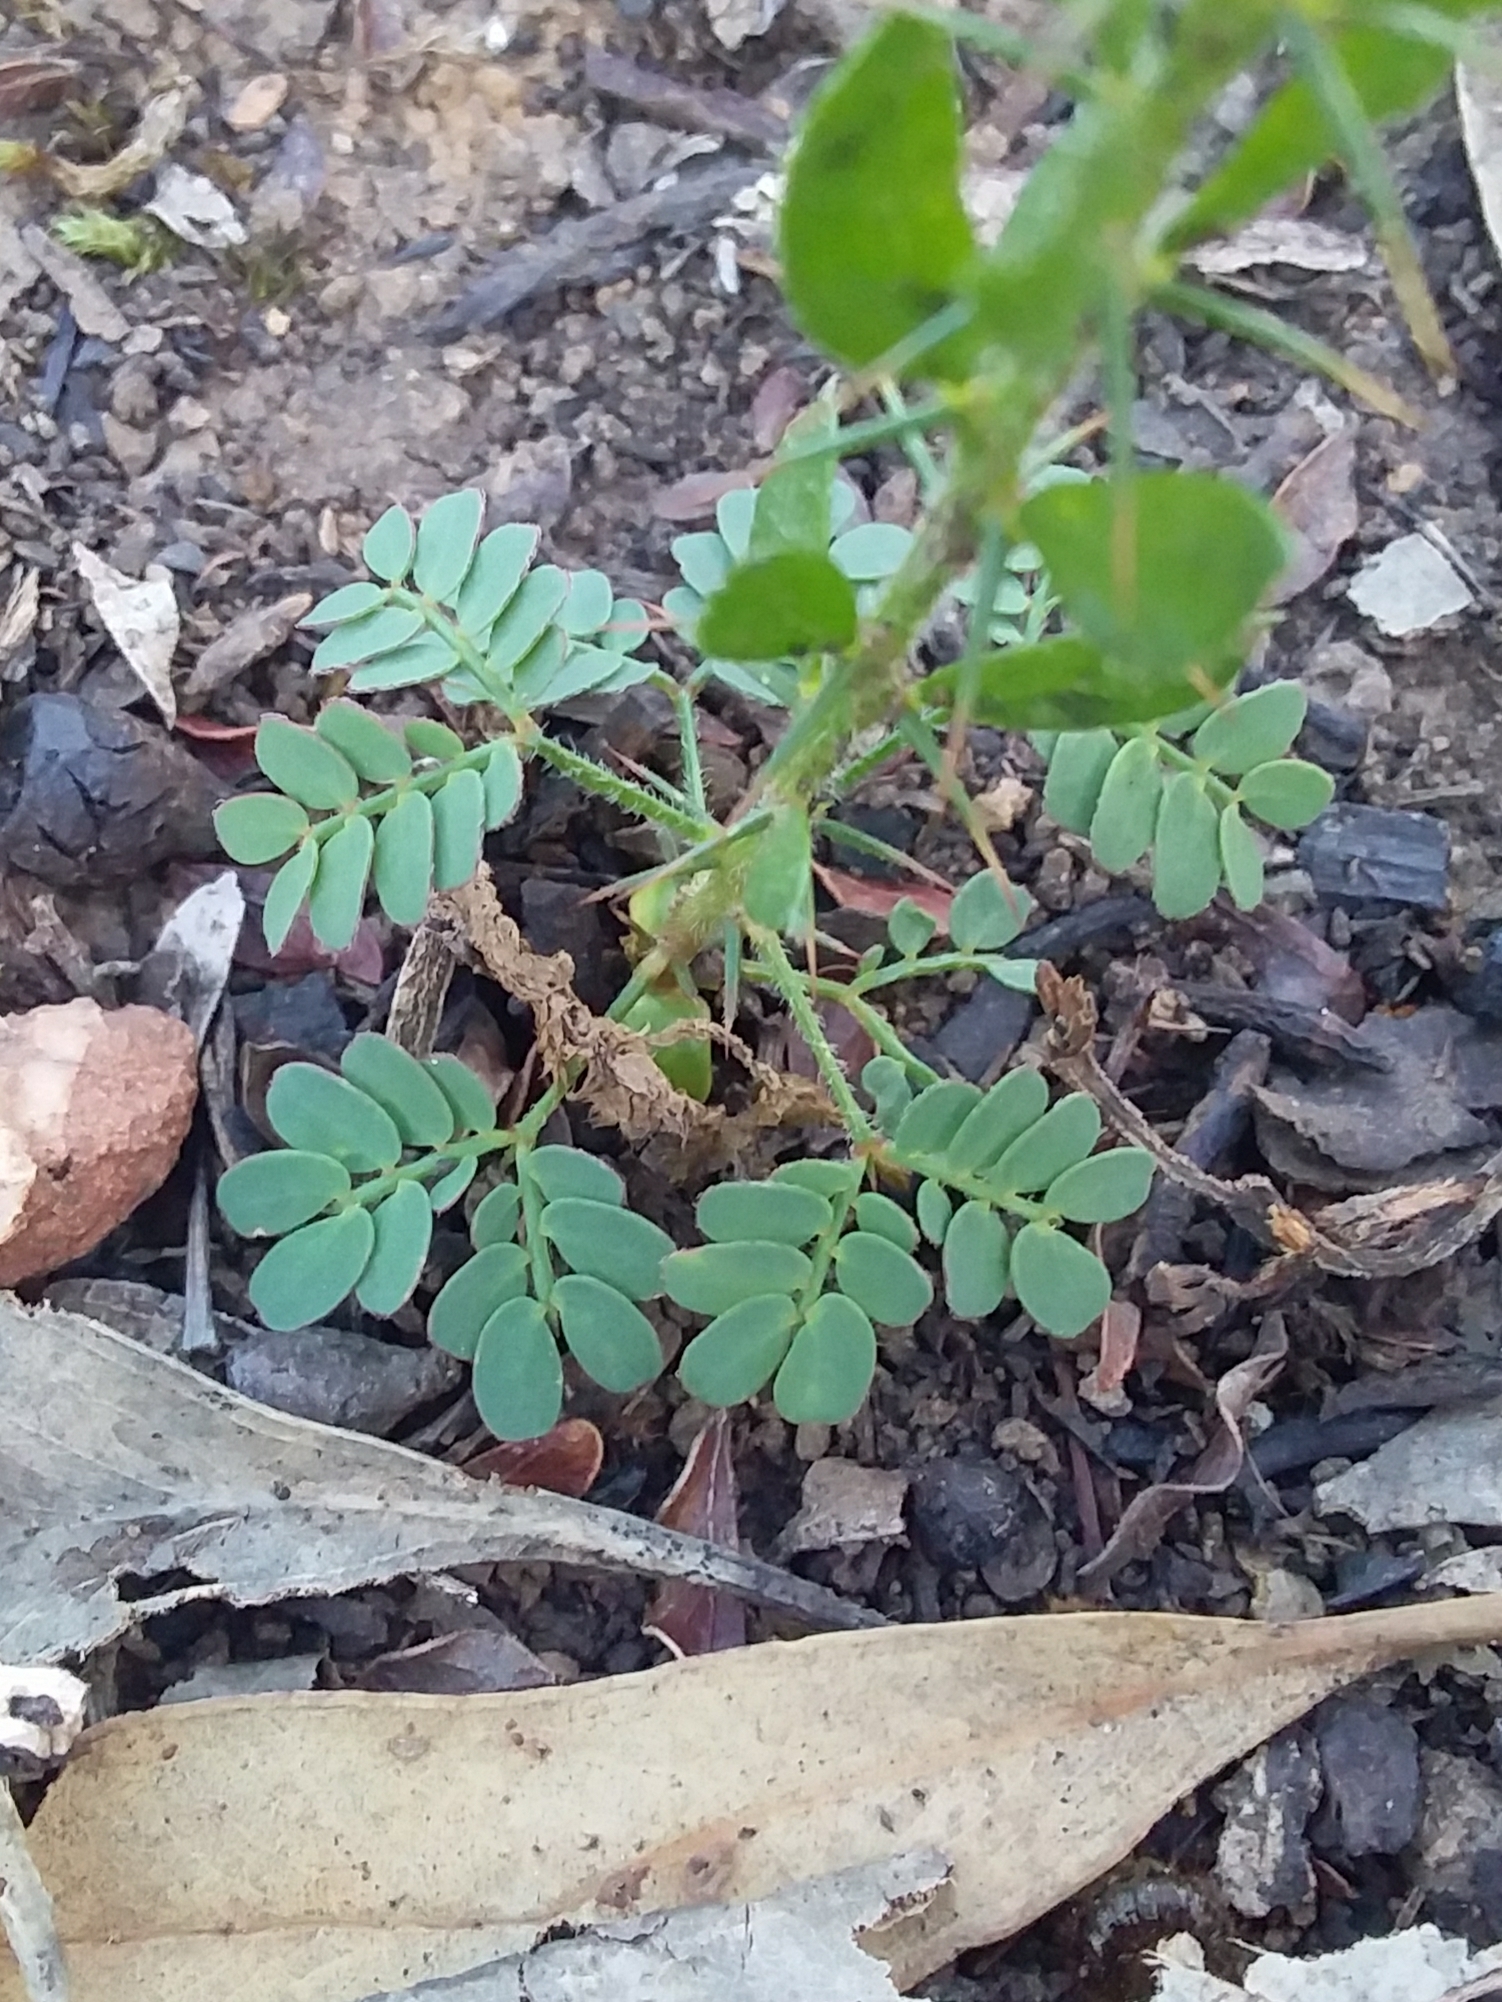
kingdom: Plantae
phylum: Tracheophyta
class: Magnoliopsida
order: Fabales
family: Fabaceae
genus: Acacia
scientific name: Acacia paradoxa
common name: Paradox acacia
